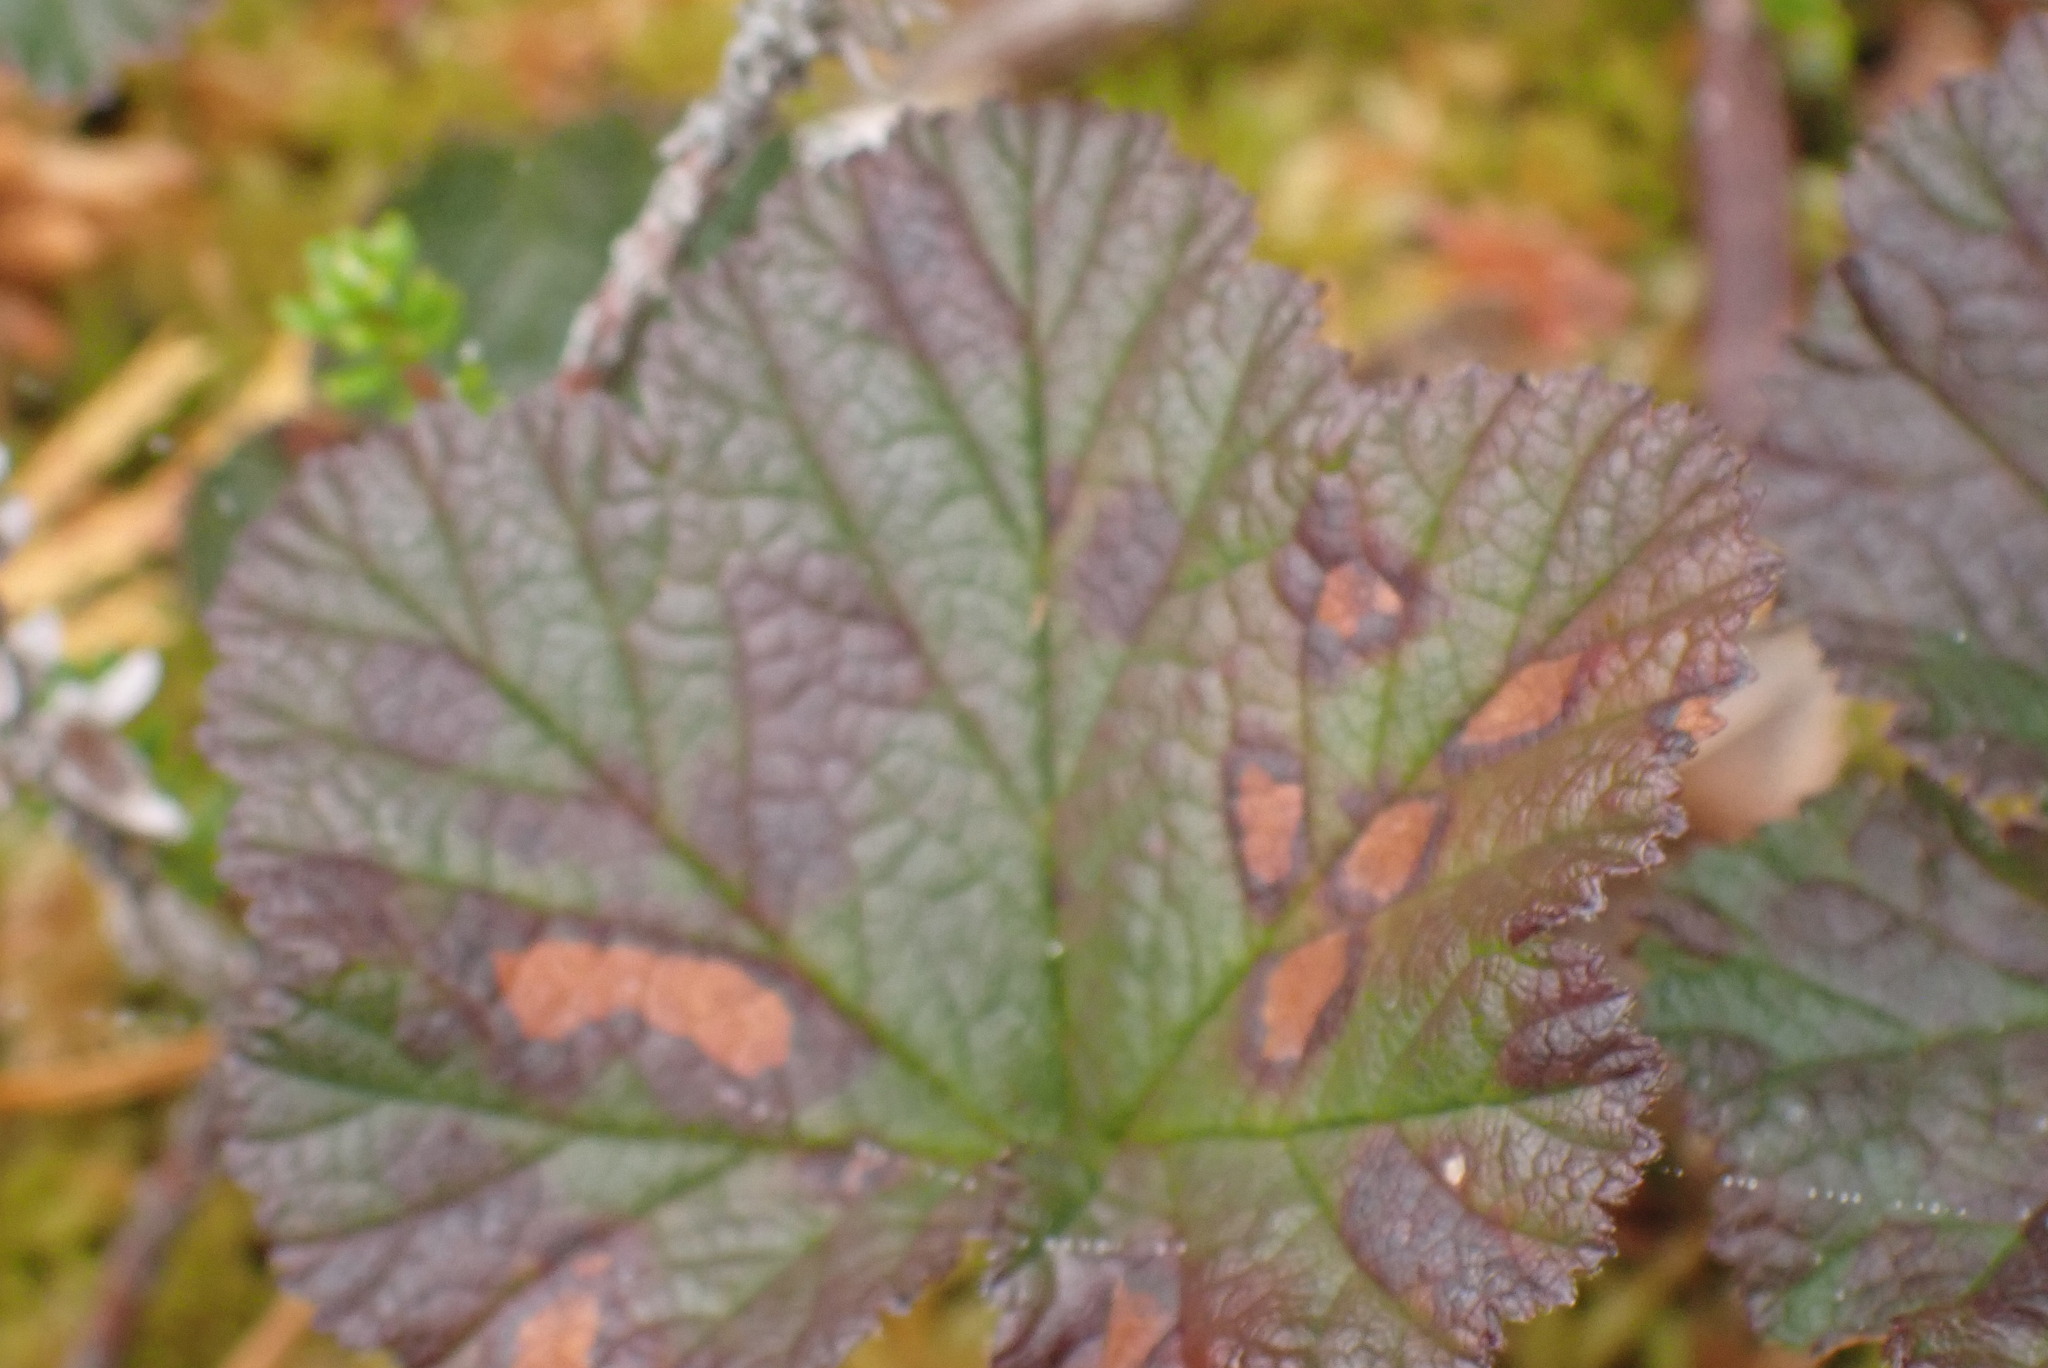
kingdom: Plantae
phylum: Tracheophyta
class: Magnoliopsida
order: Rosales
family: Rosaceae
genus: Rubus
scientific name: Rubus chamaemorus
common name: Cloudberry
